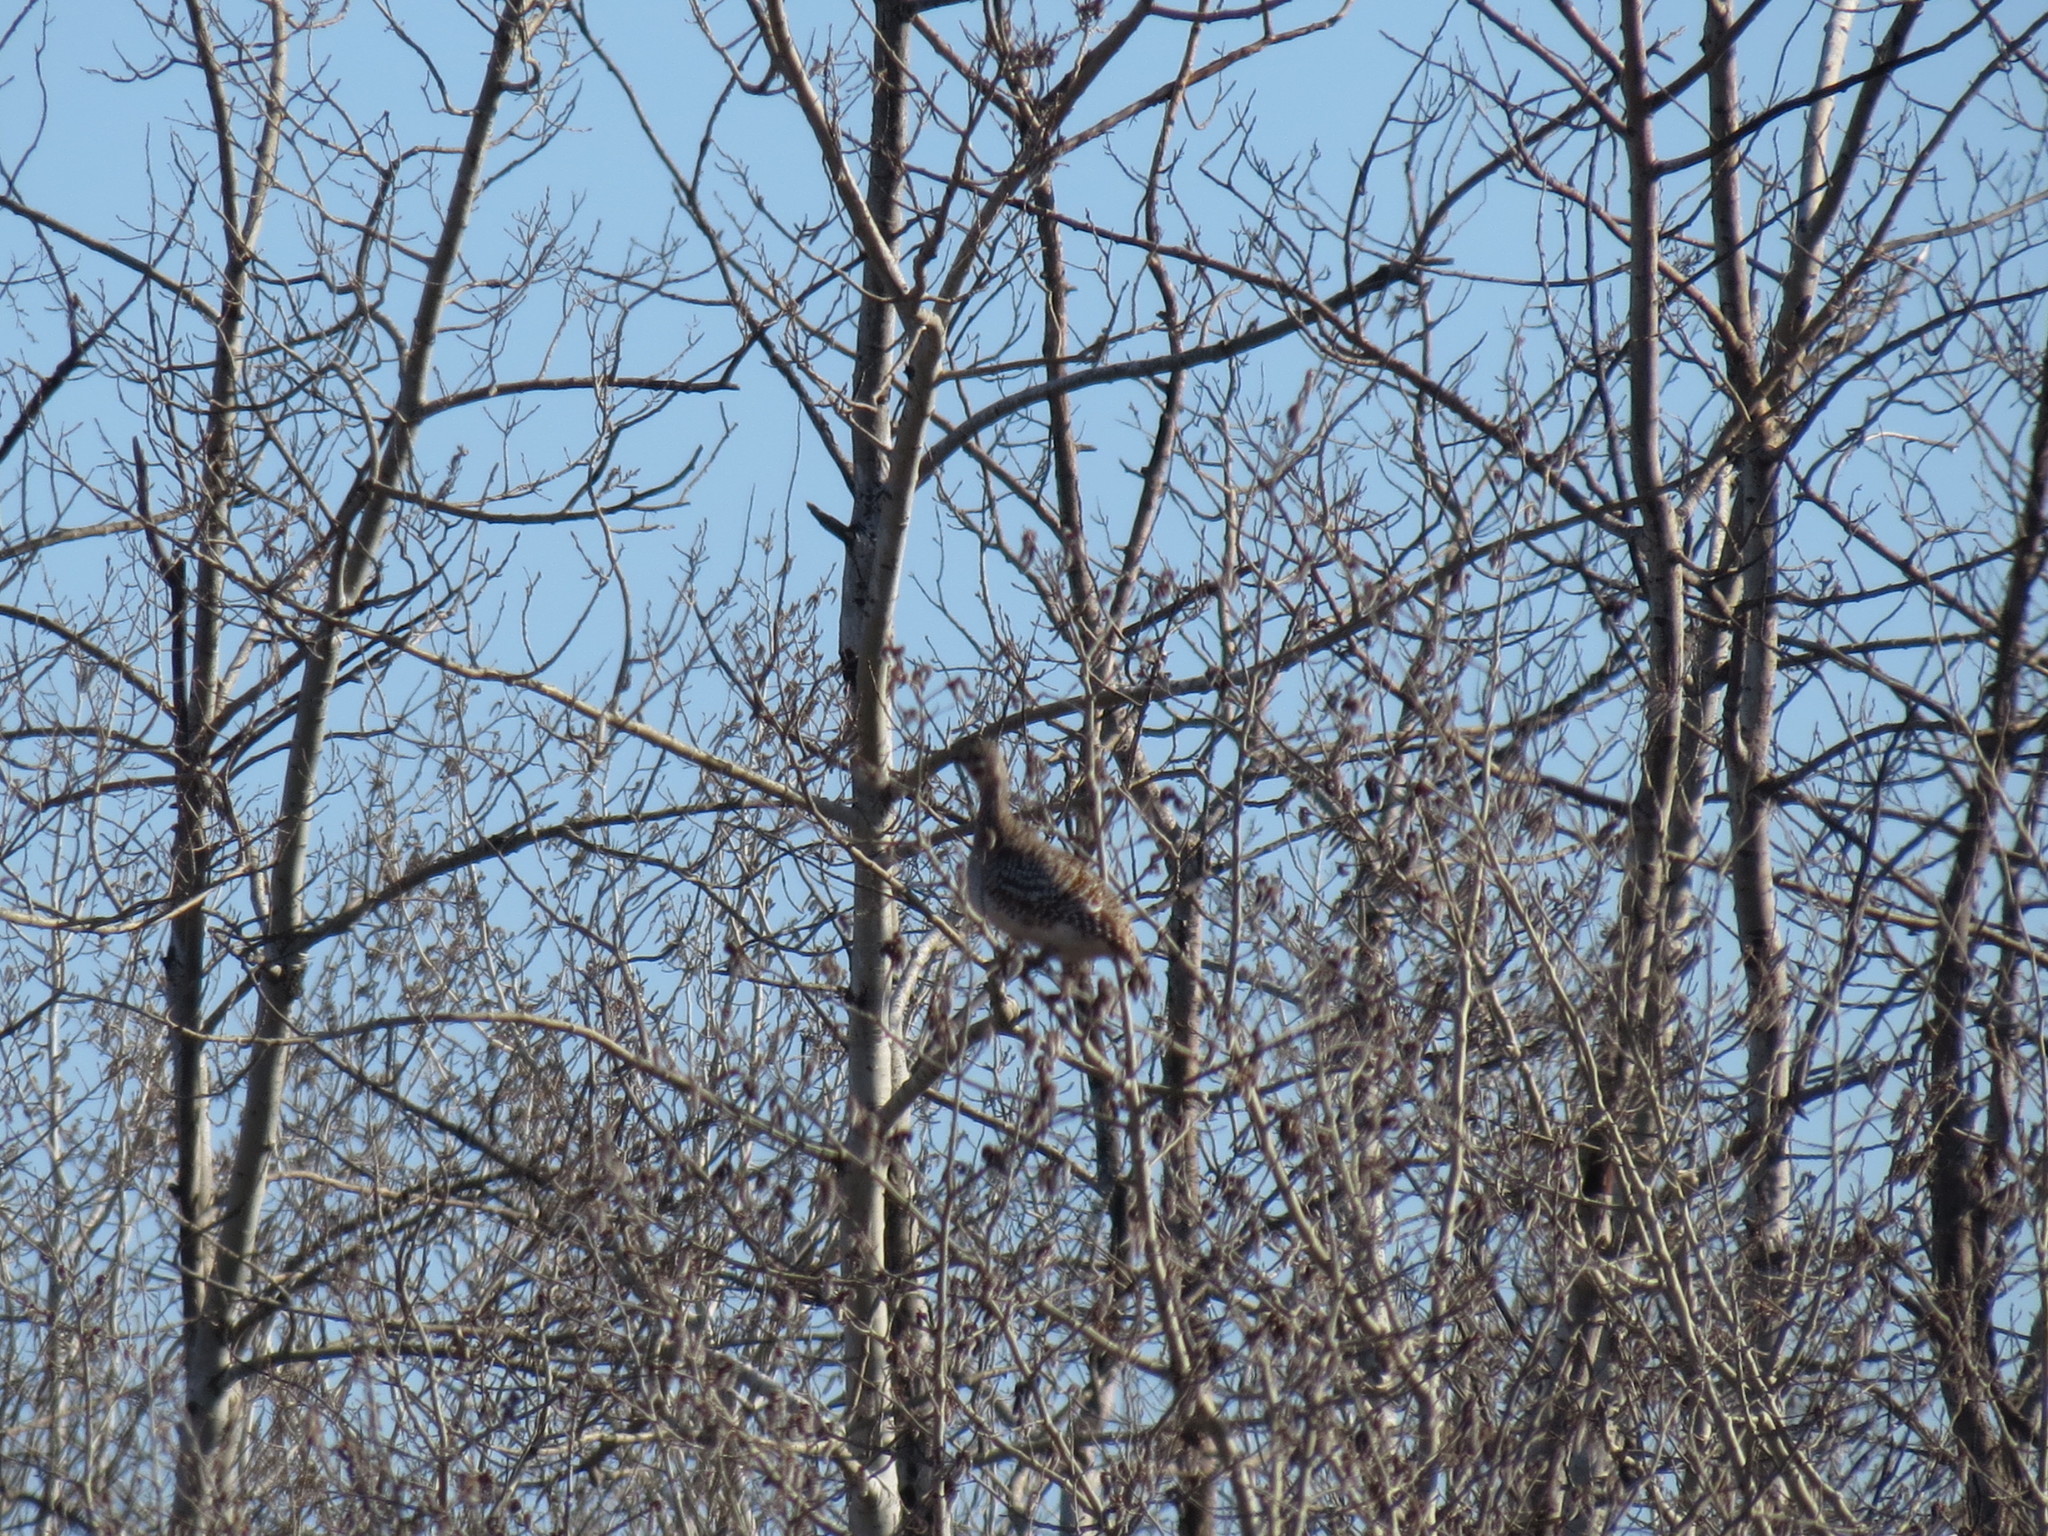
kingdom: Animalia
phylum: Chordata
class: Aves
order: Galliformes
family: Phasianidae
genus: Tympanuchus
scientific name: Tympanuchus phasianellus
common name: Sharp-tailed grouse
